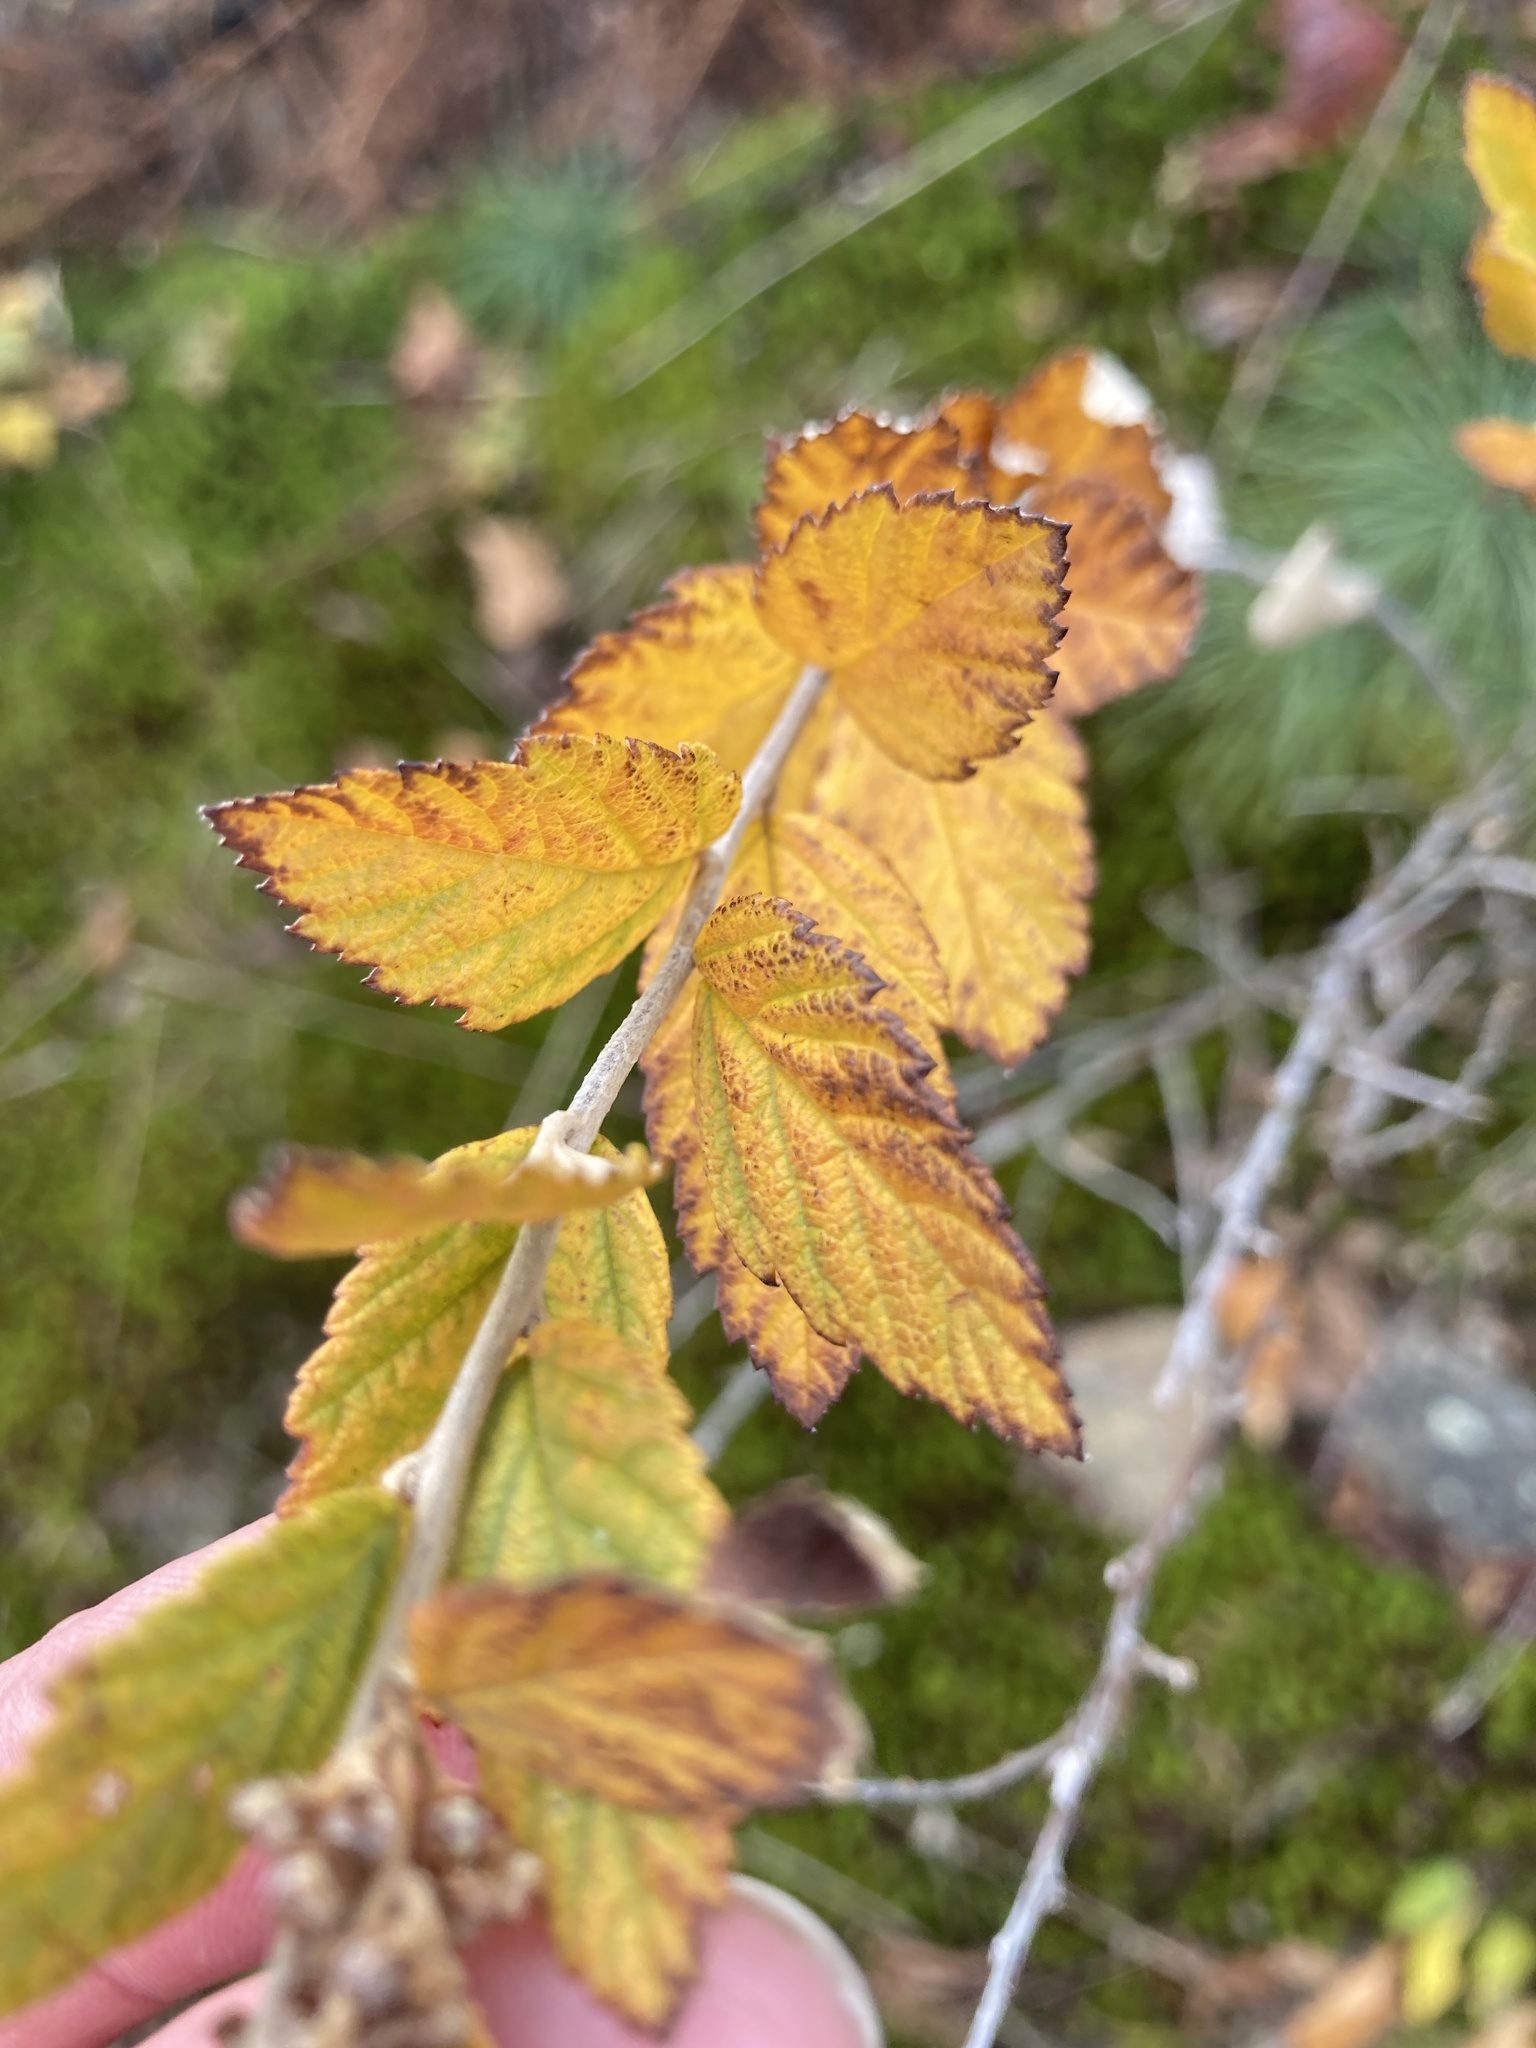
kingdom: Plantae
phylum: Tracheophyta
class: Magnoliopsida
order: Rosales
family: Rosaceae
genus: Spiraea
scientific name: Spiraea tomentosa
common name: Hardhack
